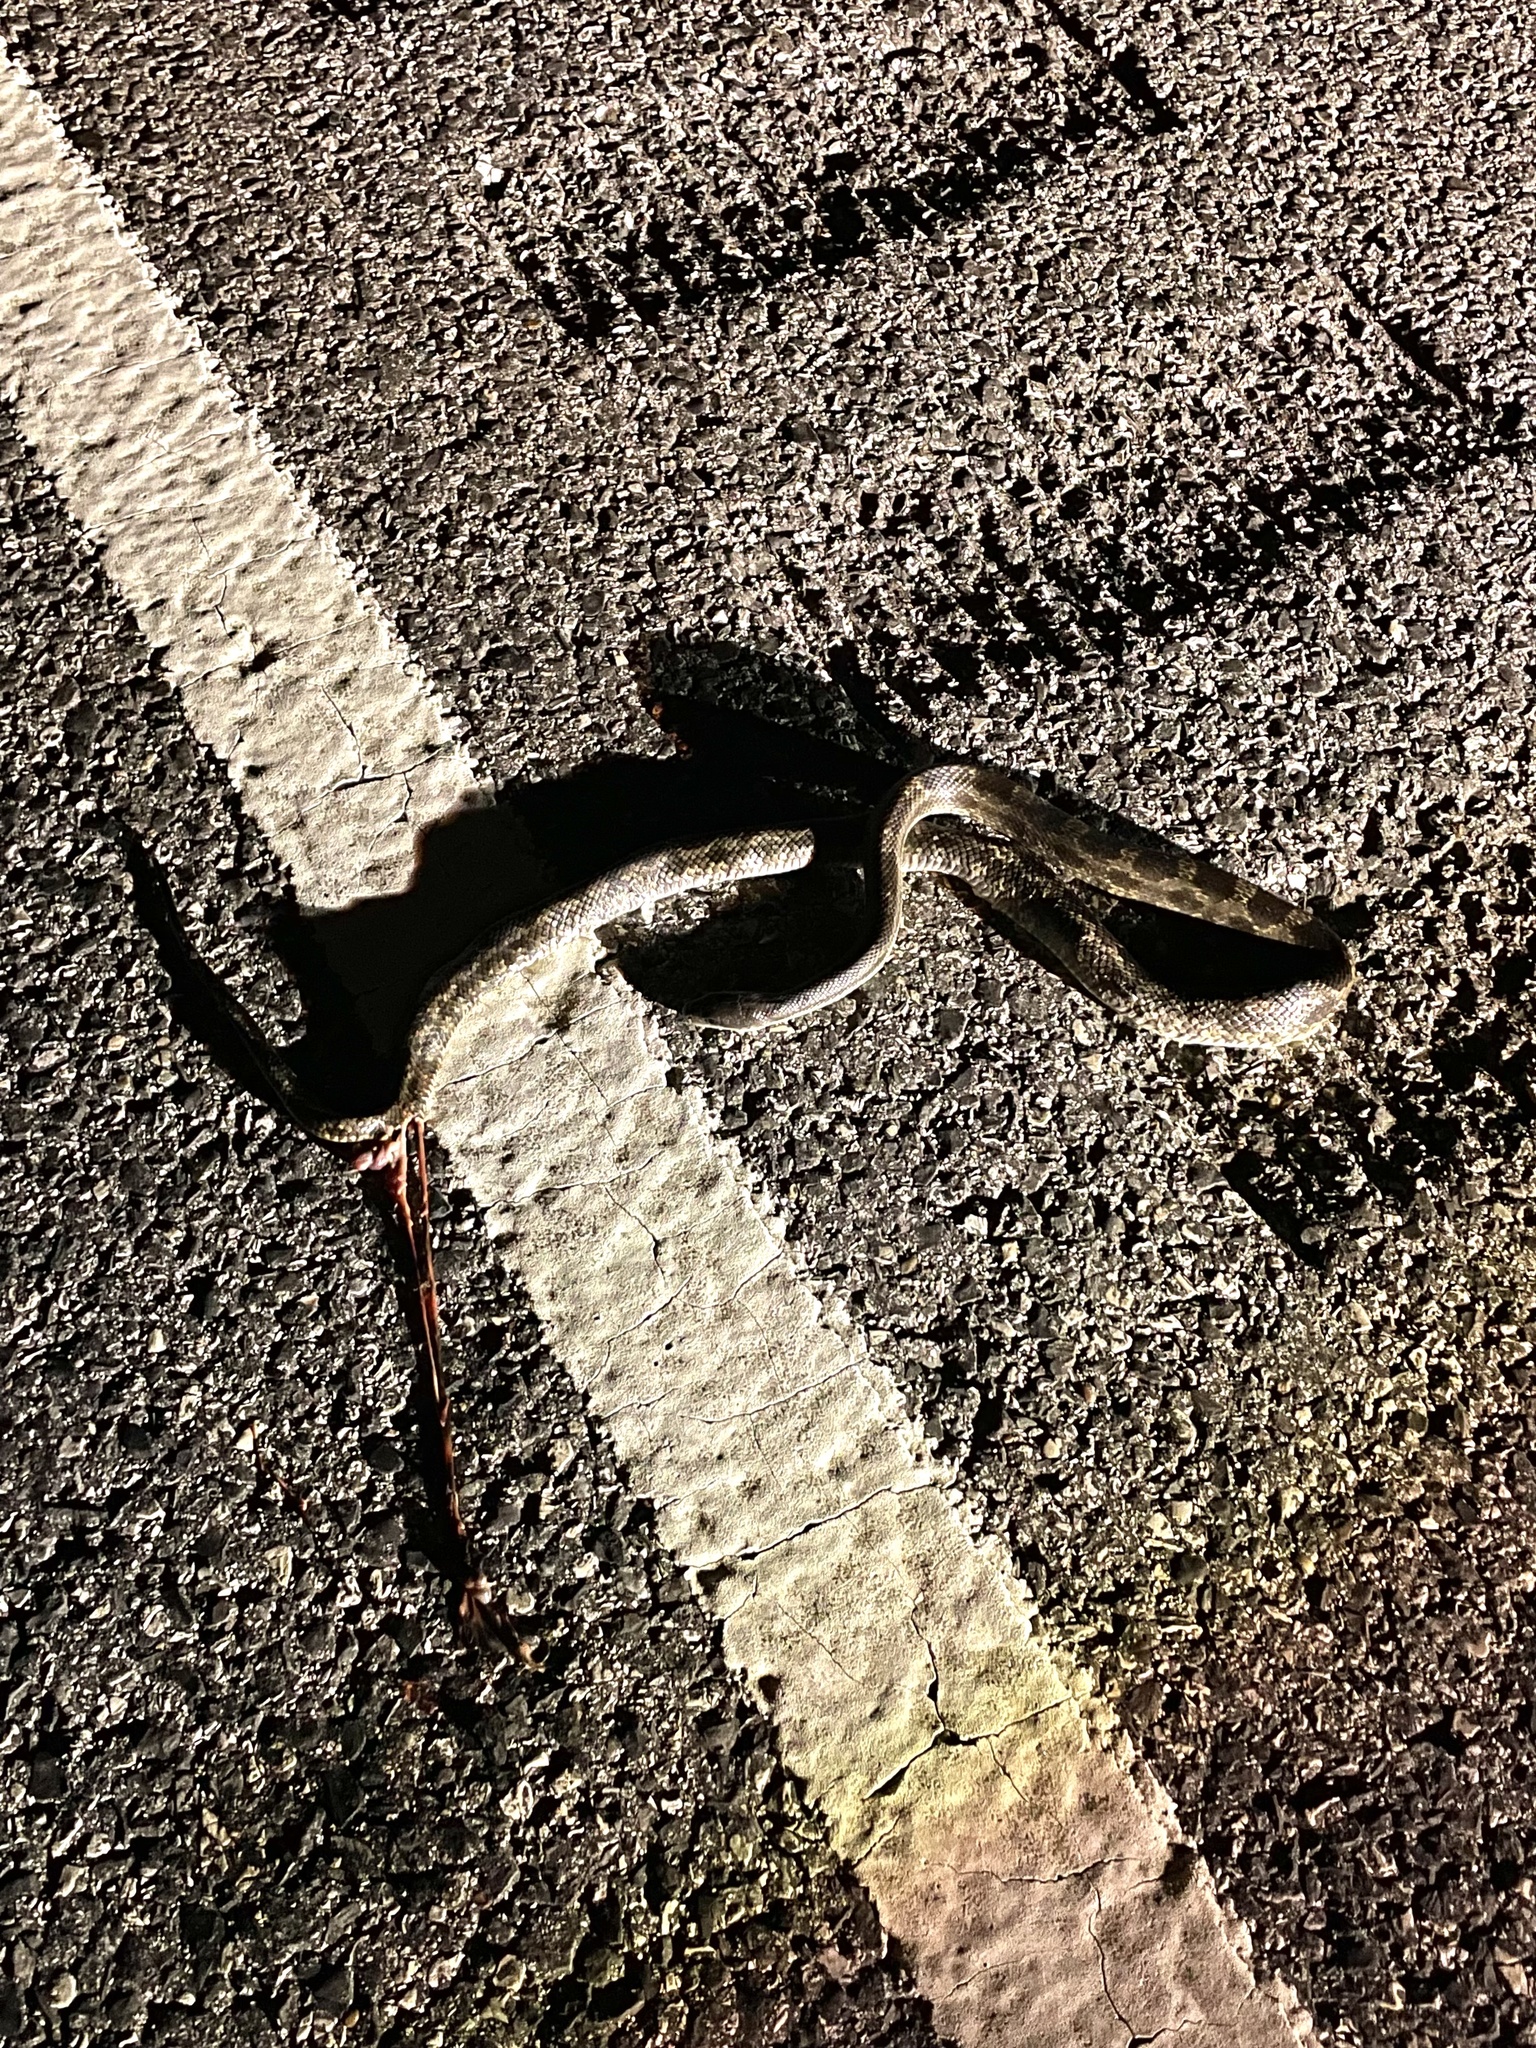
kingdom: Animalia
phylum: Chordata
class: Squamata
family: Colubridae
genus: Pantherophis
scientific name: Pantherophis obsoletus
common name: Black rat snake
